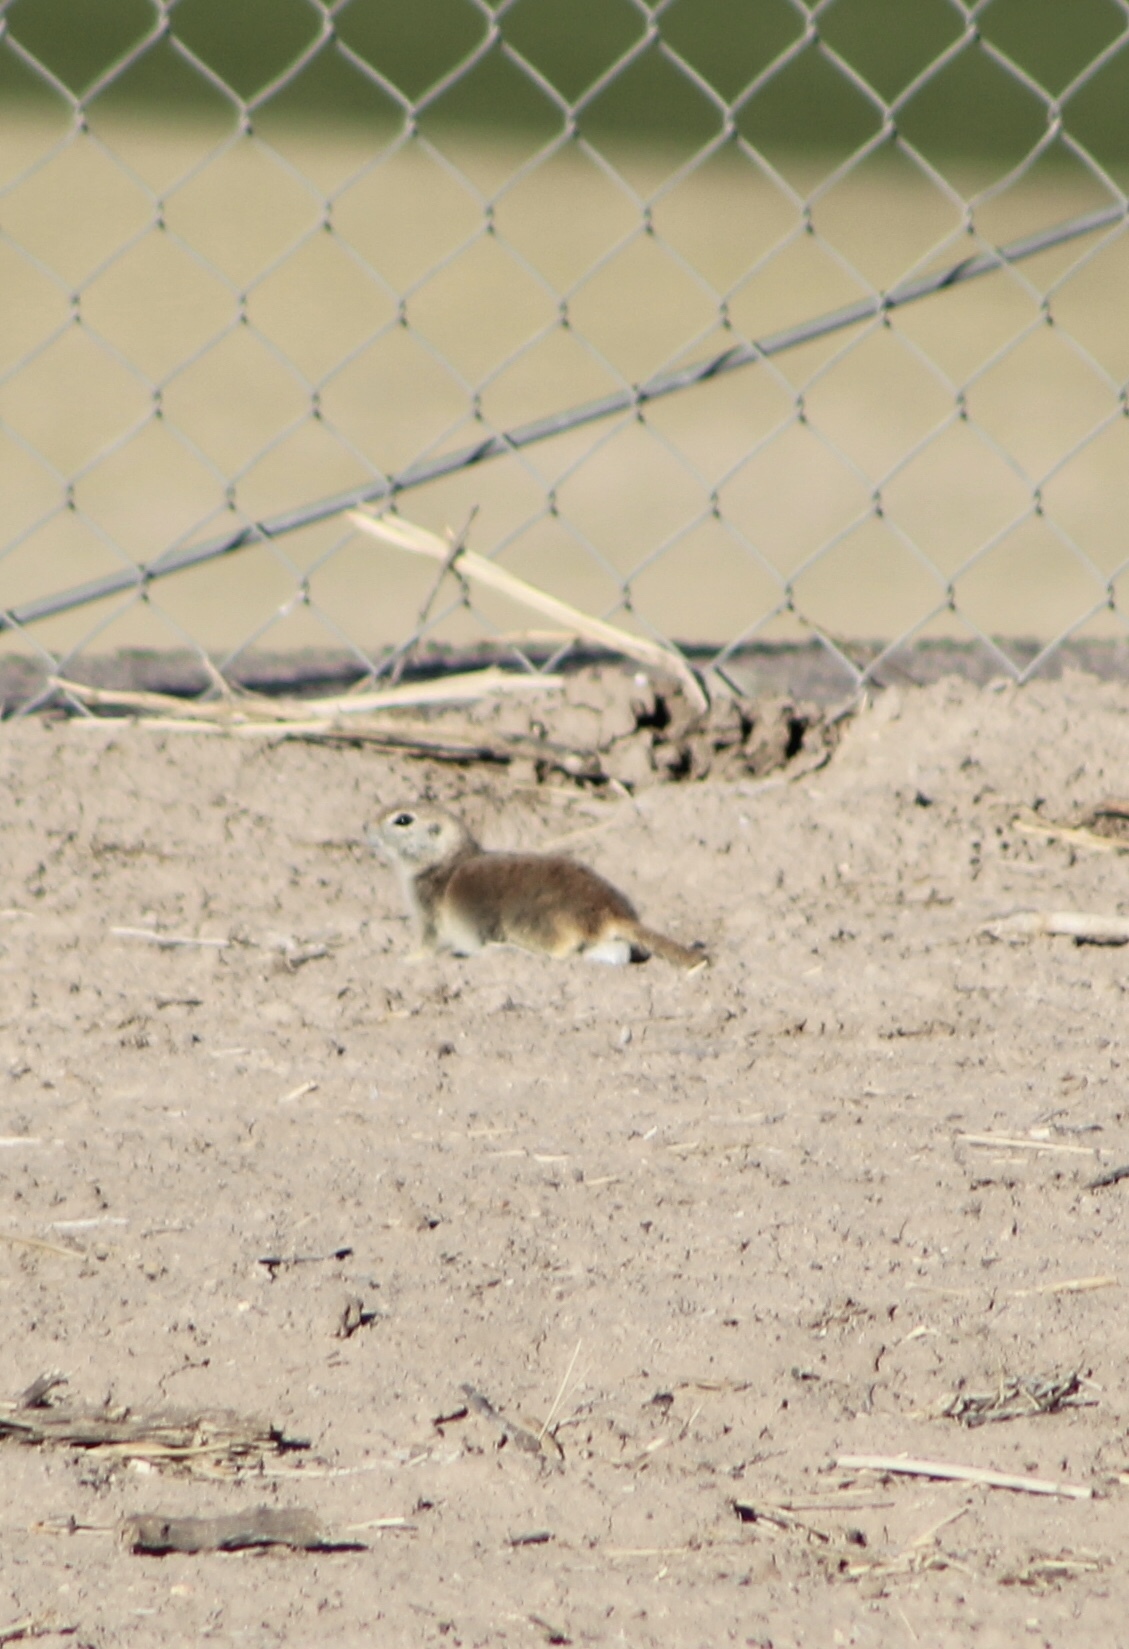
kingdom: Animalia
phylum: Chordata
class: Mammalia
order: Rodentia
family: Sciuridae
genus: Xerospermophilus
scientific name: Xerospermophilus tereticaudus
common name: Round-tailed ground squirrel
